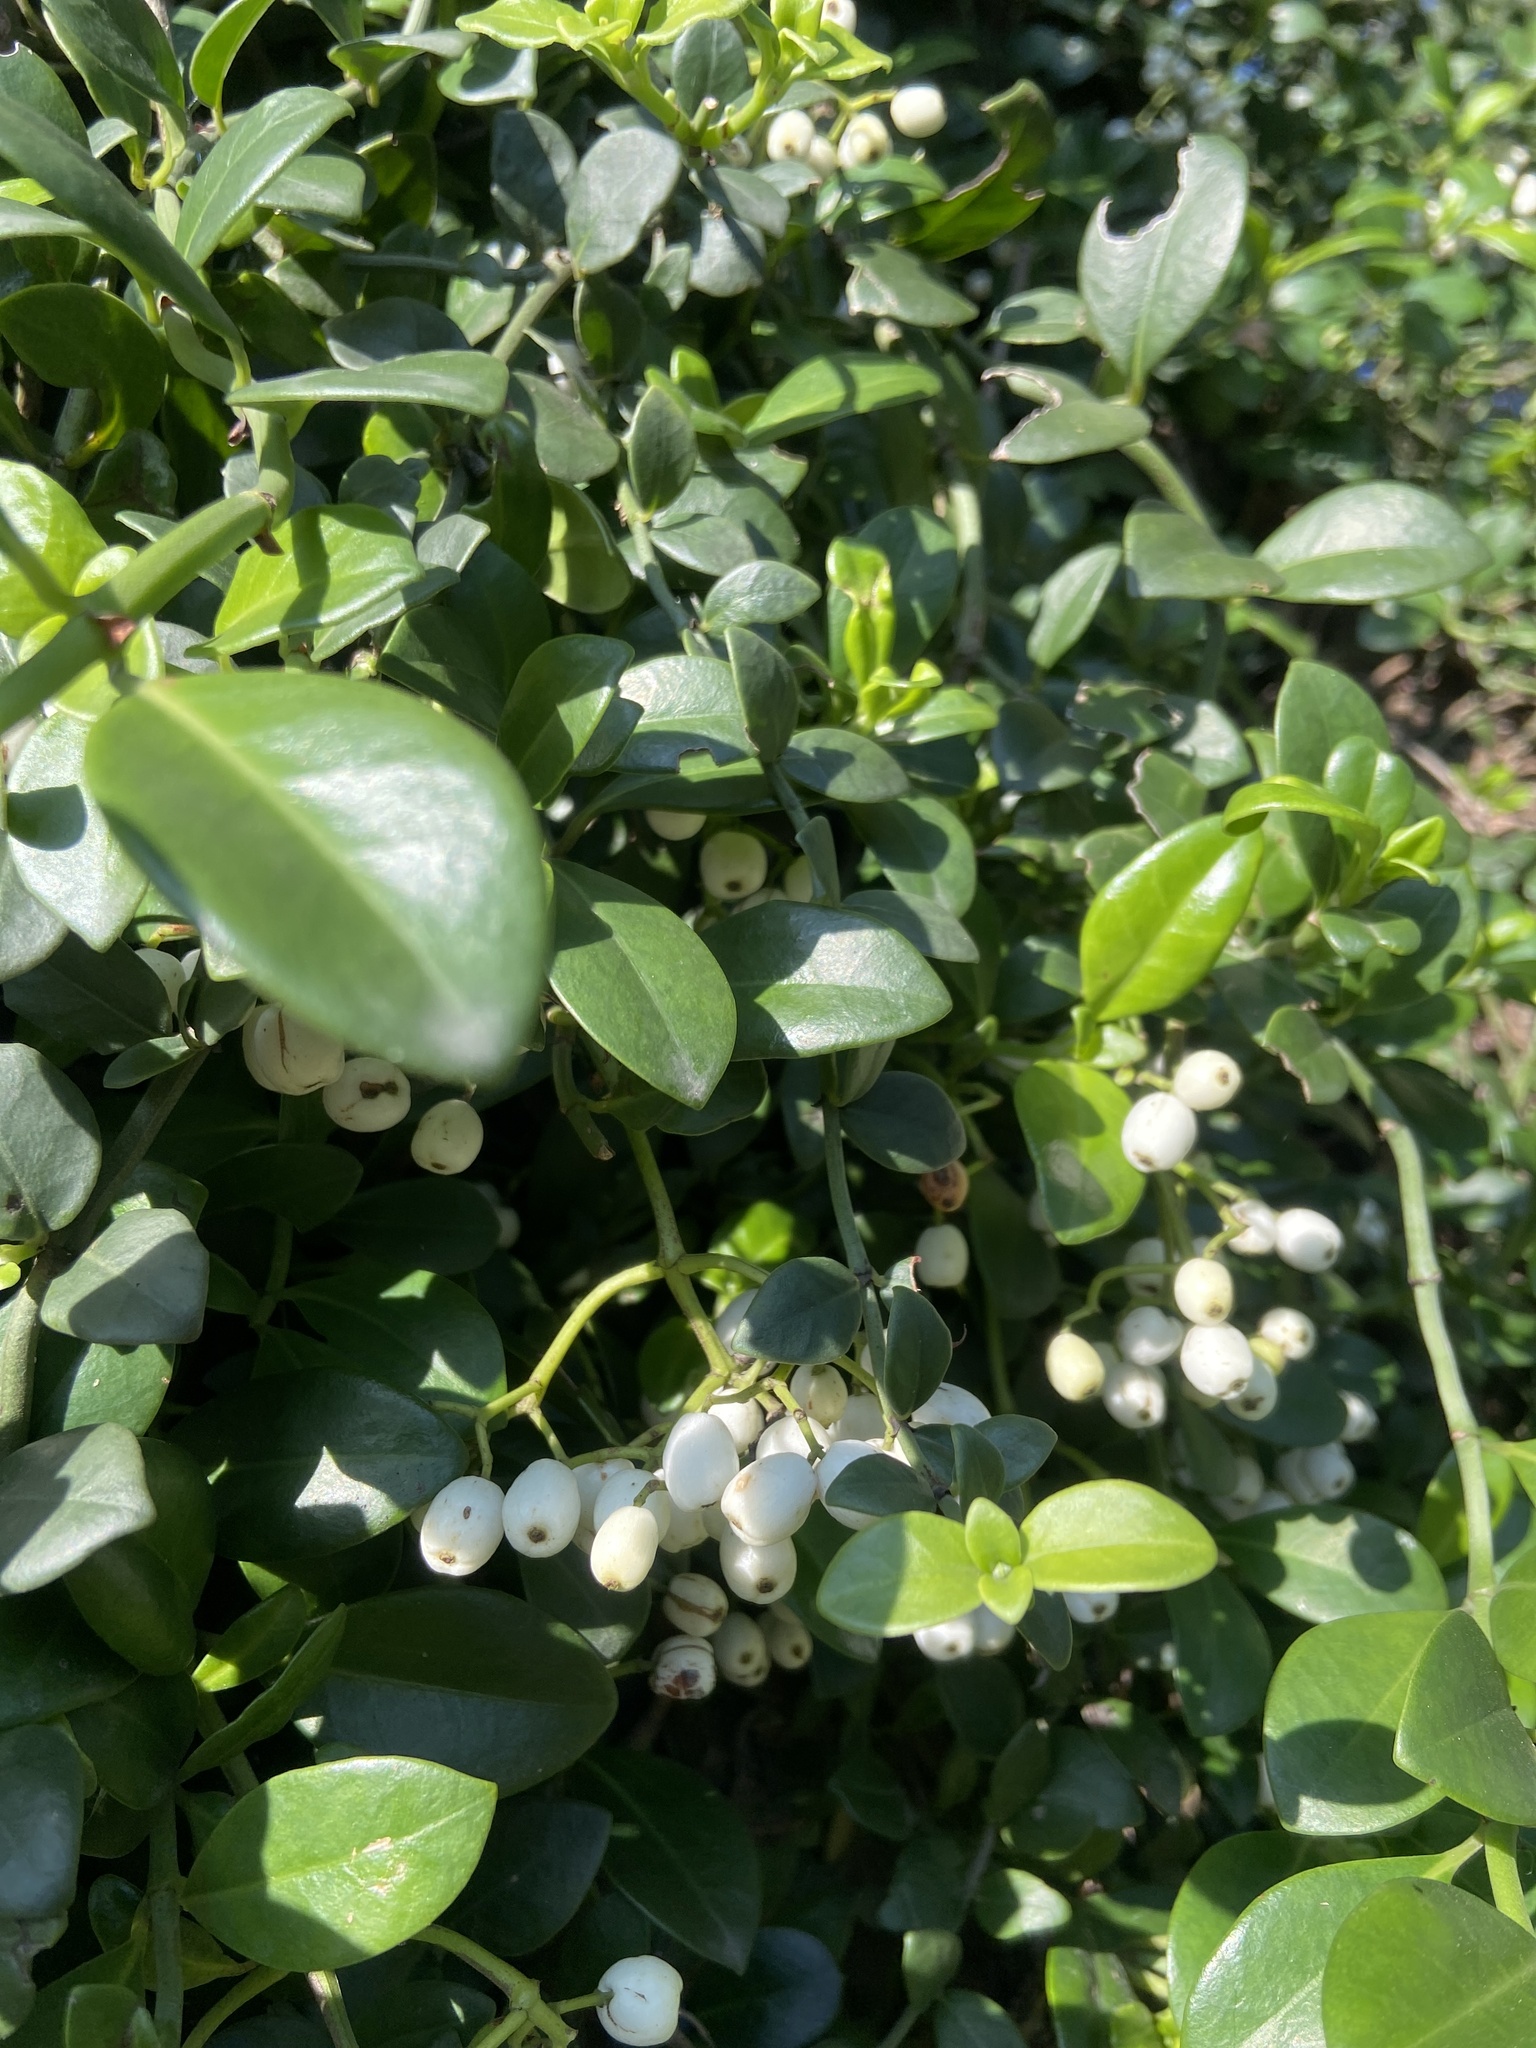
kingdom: Plantae
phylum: Tracheophyta
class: Magnoliopsida
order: Gentianales
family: Rubiaceae
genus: Psychotria
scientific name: Psychotria serpens
